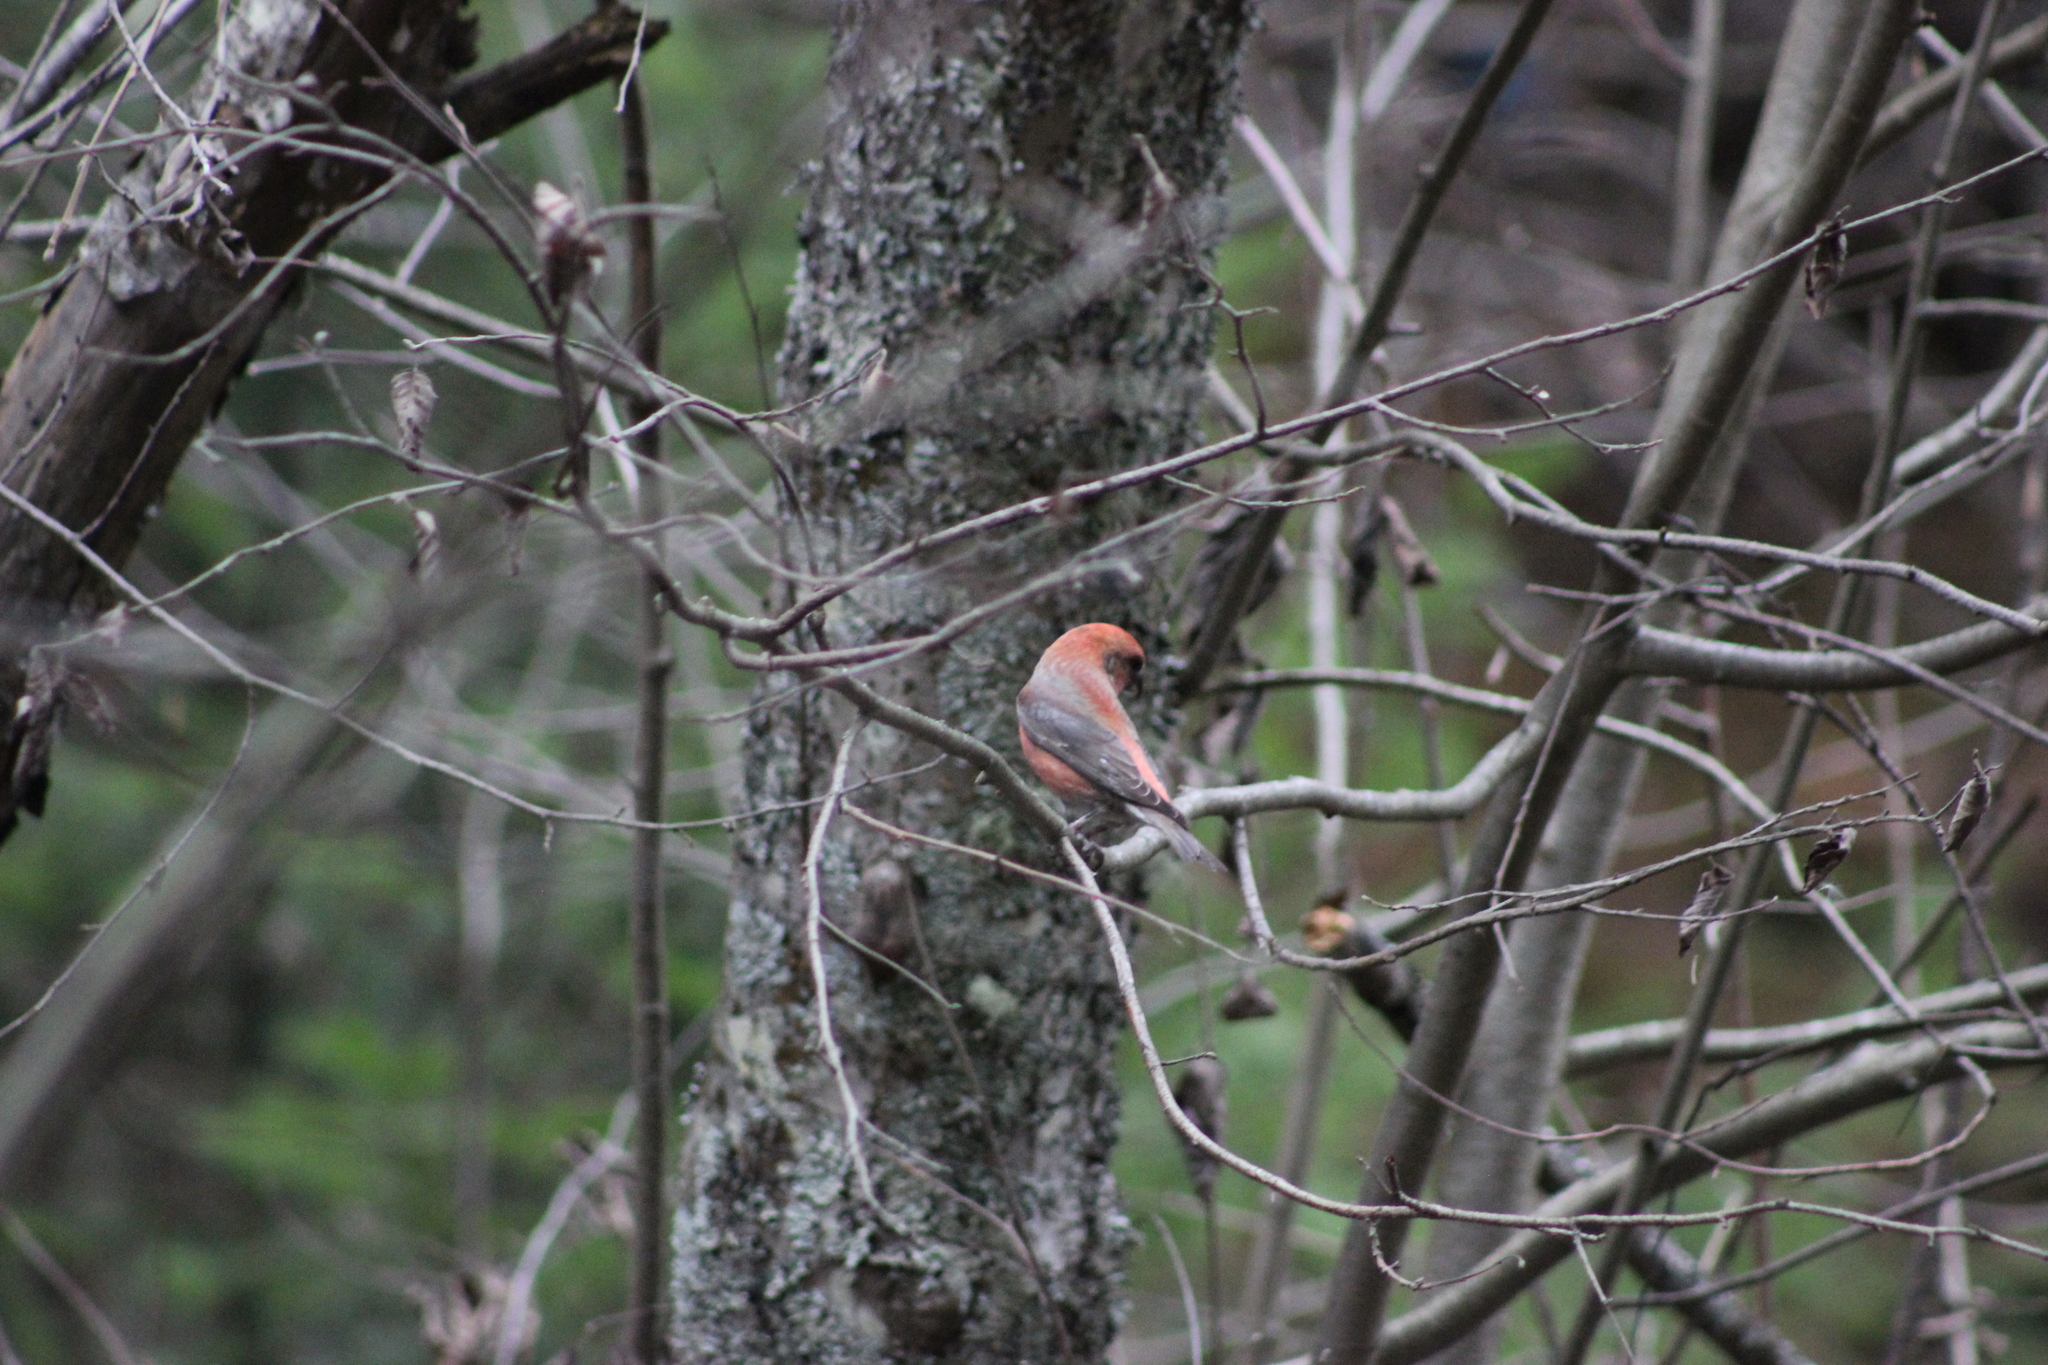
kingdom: Animalia
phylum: Chordata
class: Aves
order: Passeriformes
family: Fringillidae
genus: Loxia
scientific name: Loxia curvirostra
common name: Red crossbill
